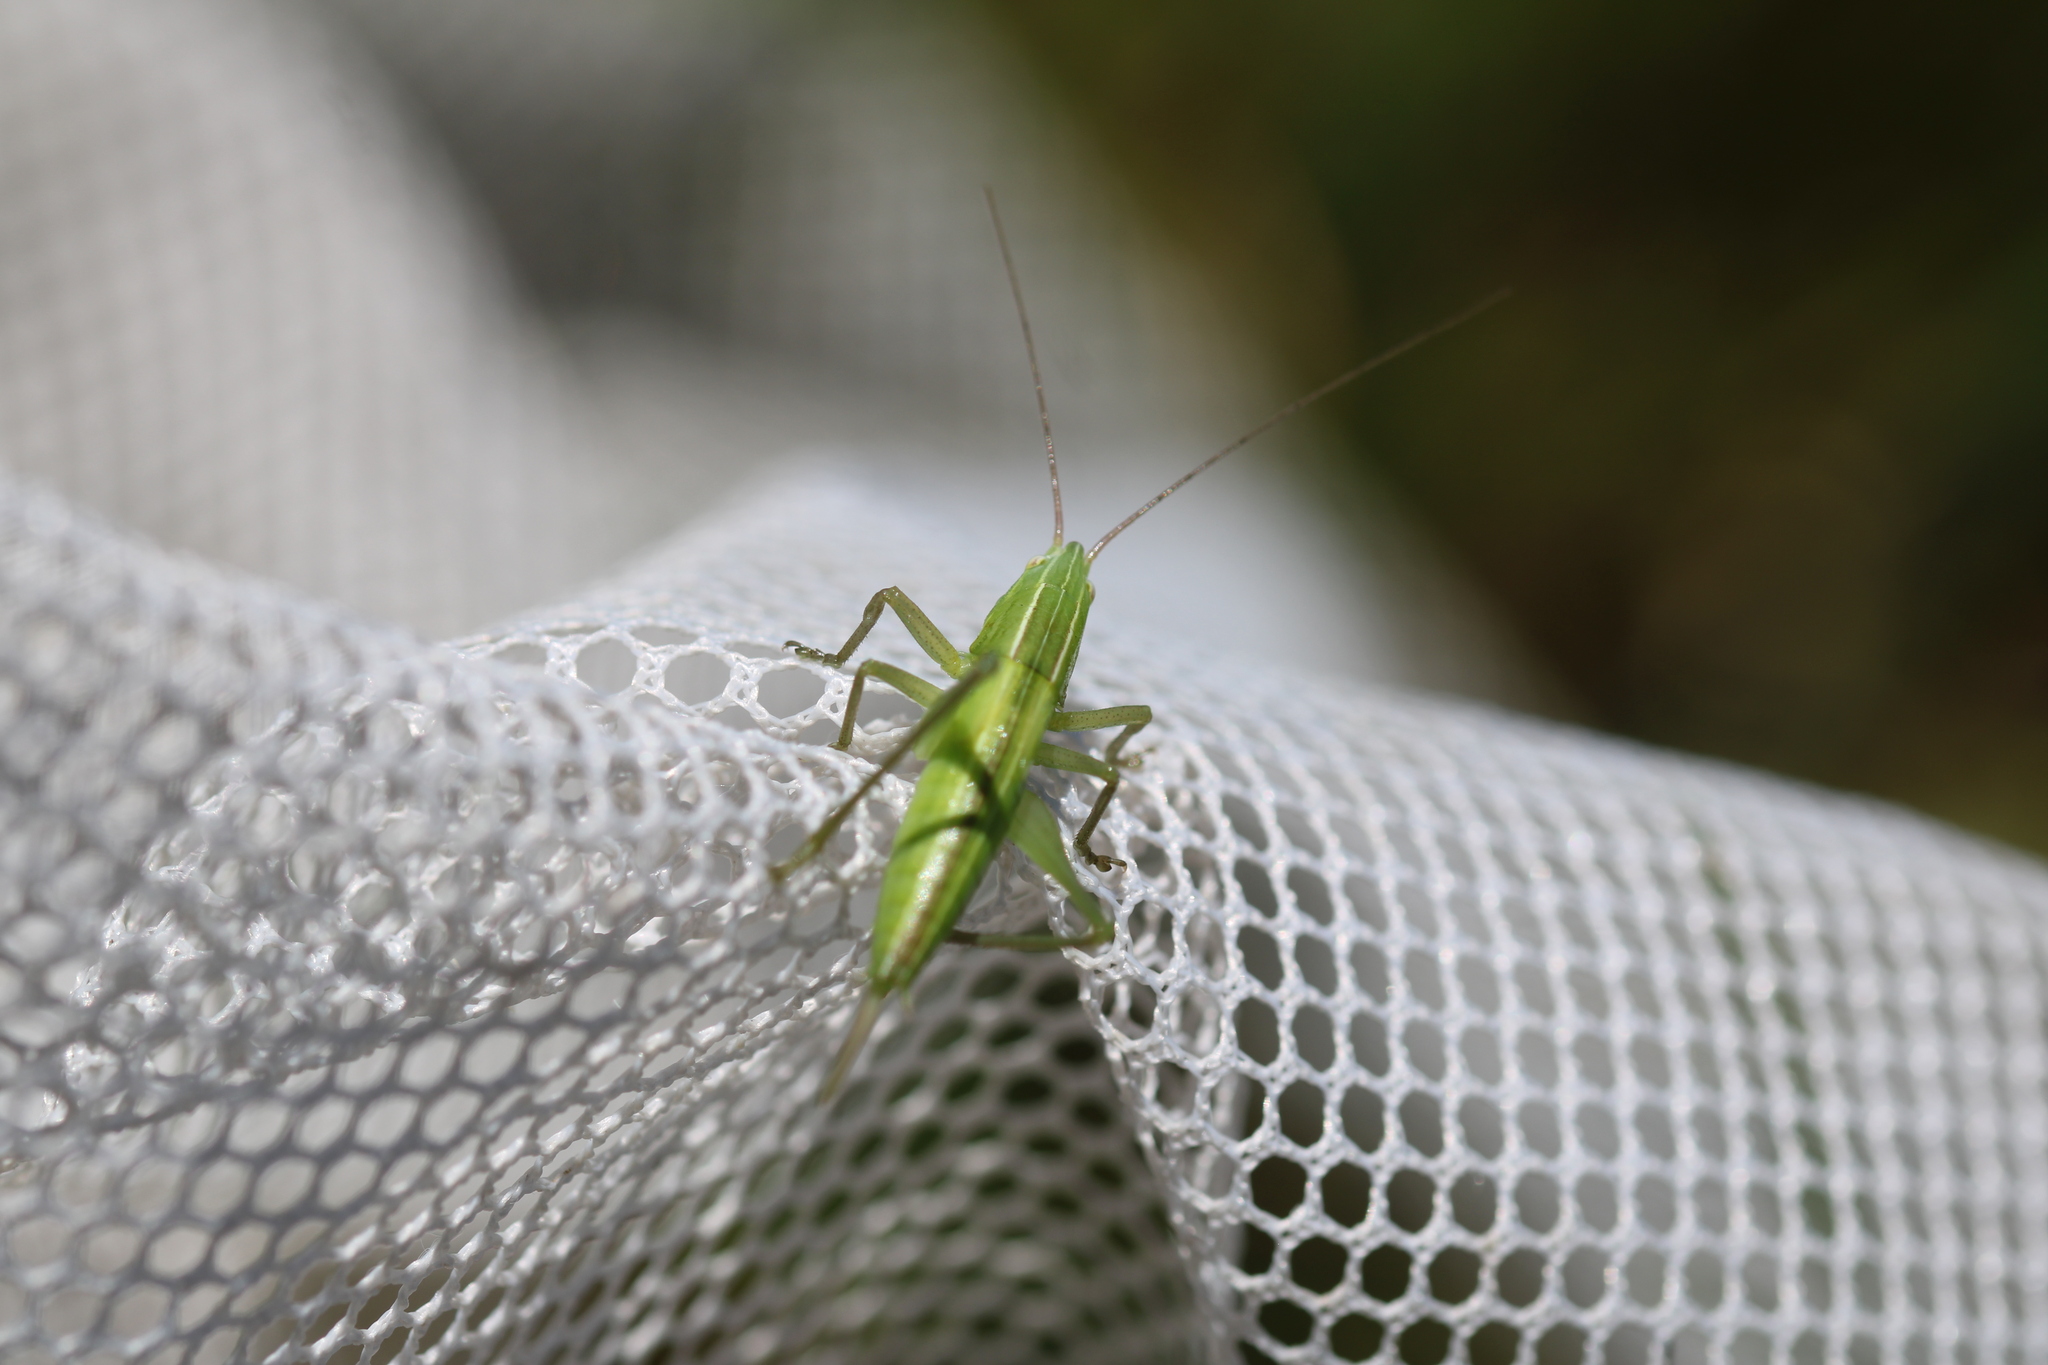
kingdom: Animalia
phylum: Arthropoda
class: Insecta
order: Orthoptera
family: Tettigoniidae
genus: Ruspolia
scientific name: Ruspolia nitidula
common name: Large conehead
